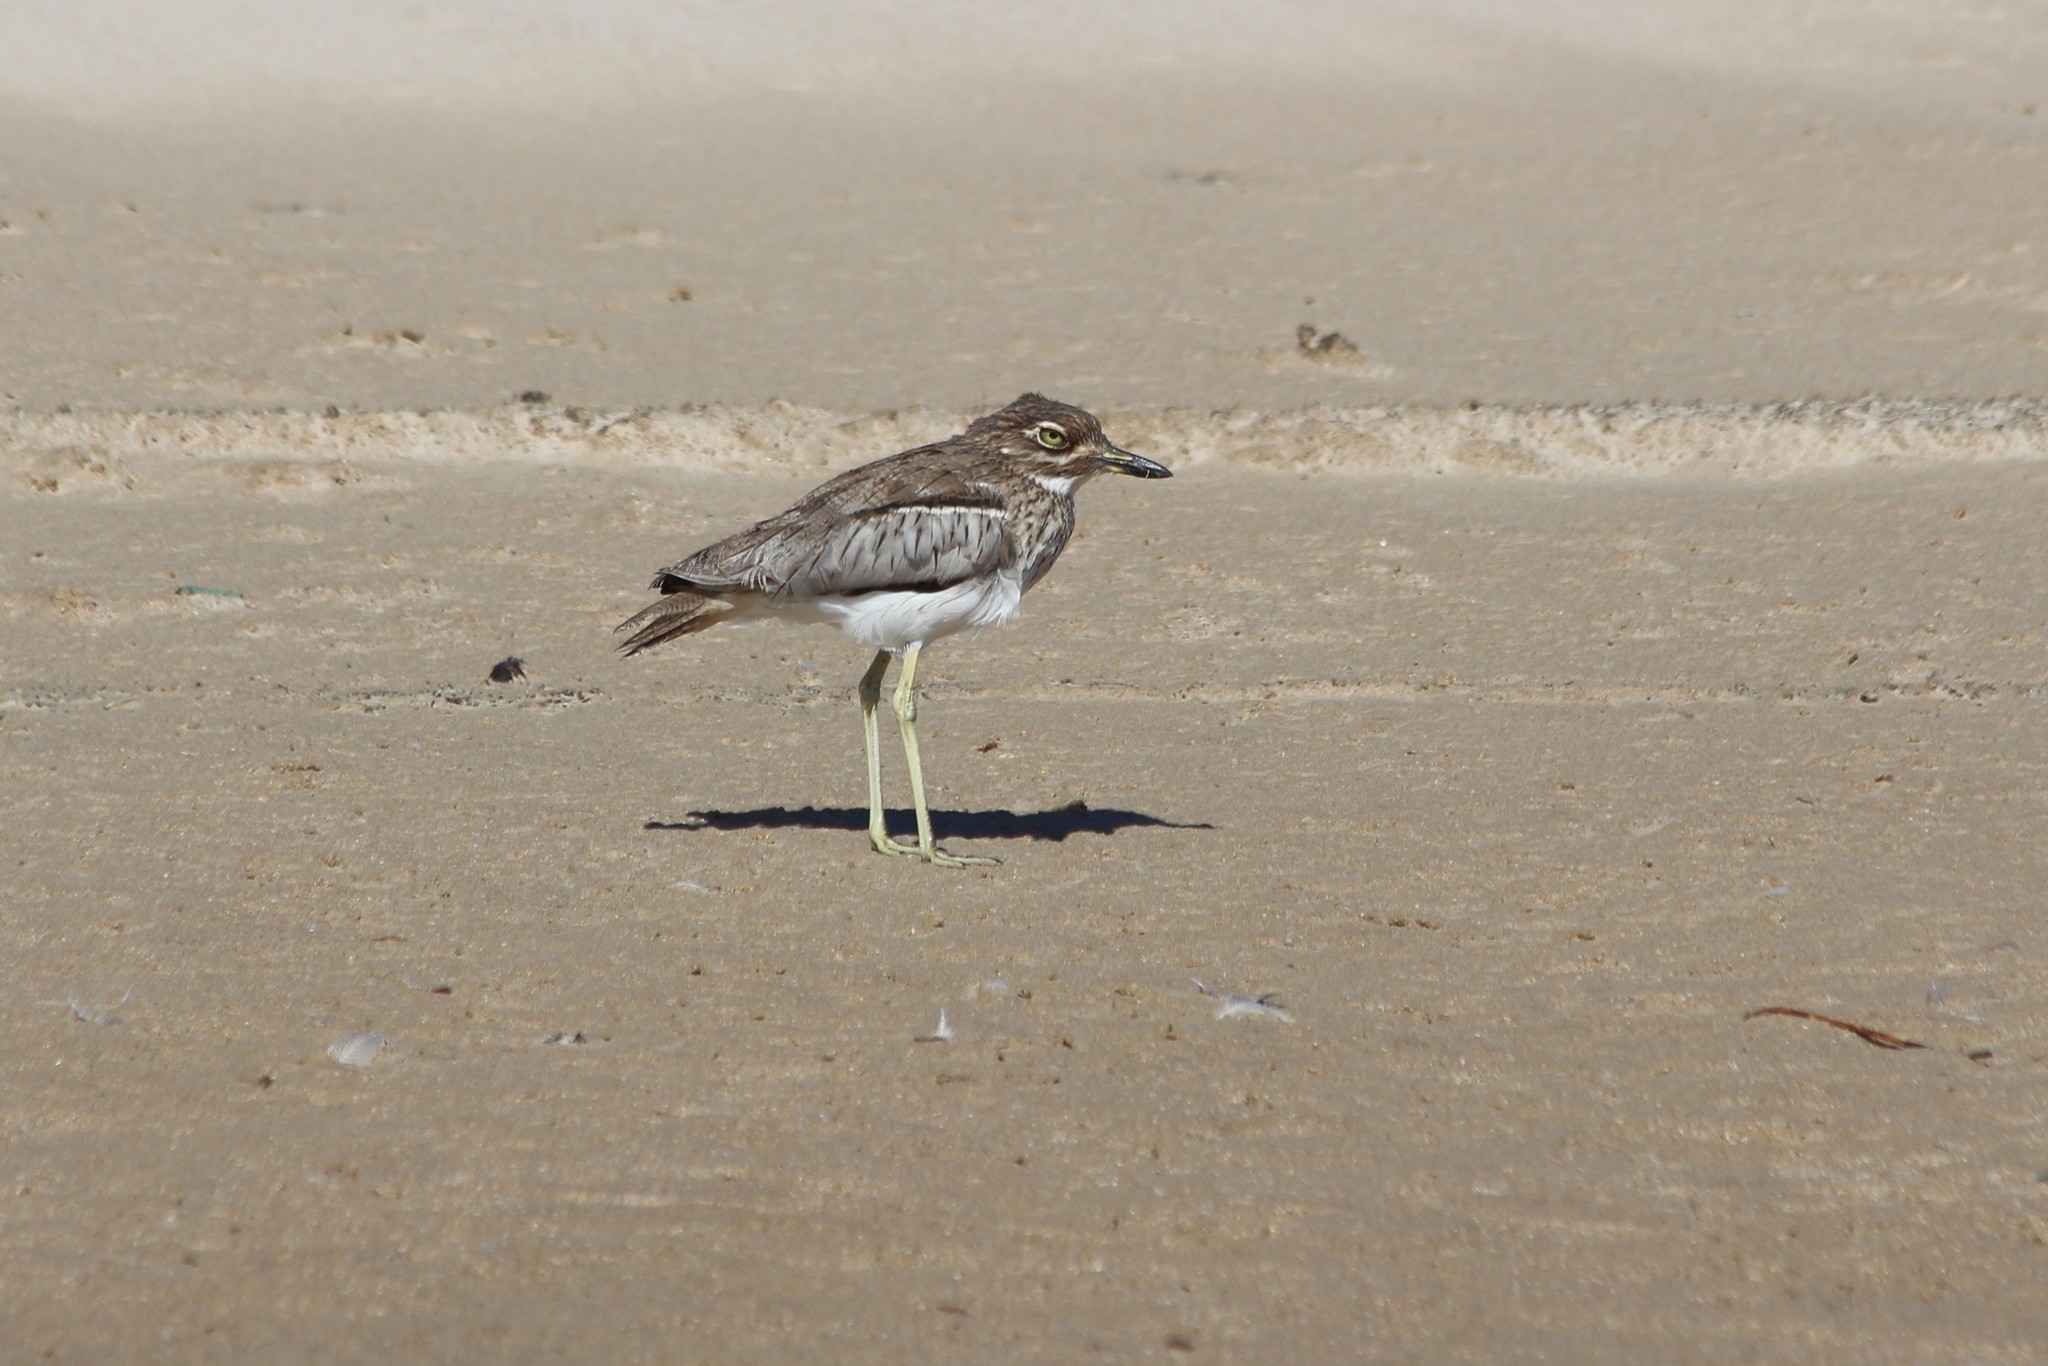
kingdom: Animalia
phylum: Chordata
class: Aves
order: Charadriiformes
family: Burhinidae
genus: Burhinus
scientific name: Burhinus vermiculatus
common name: Water thick-knee
